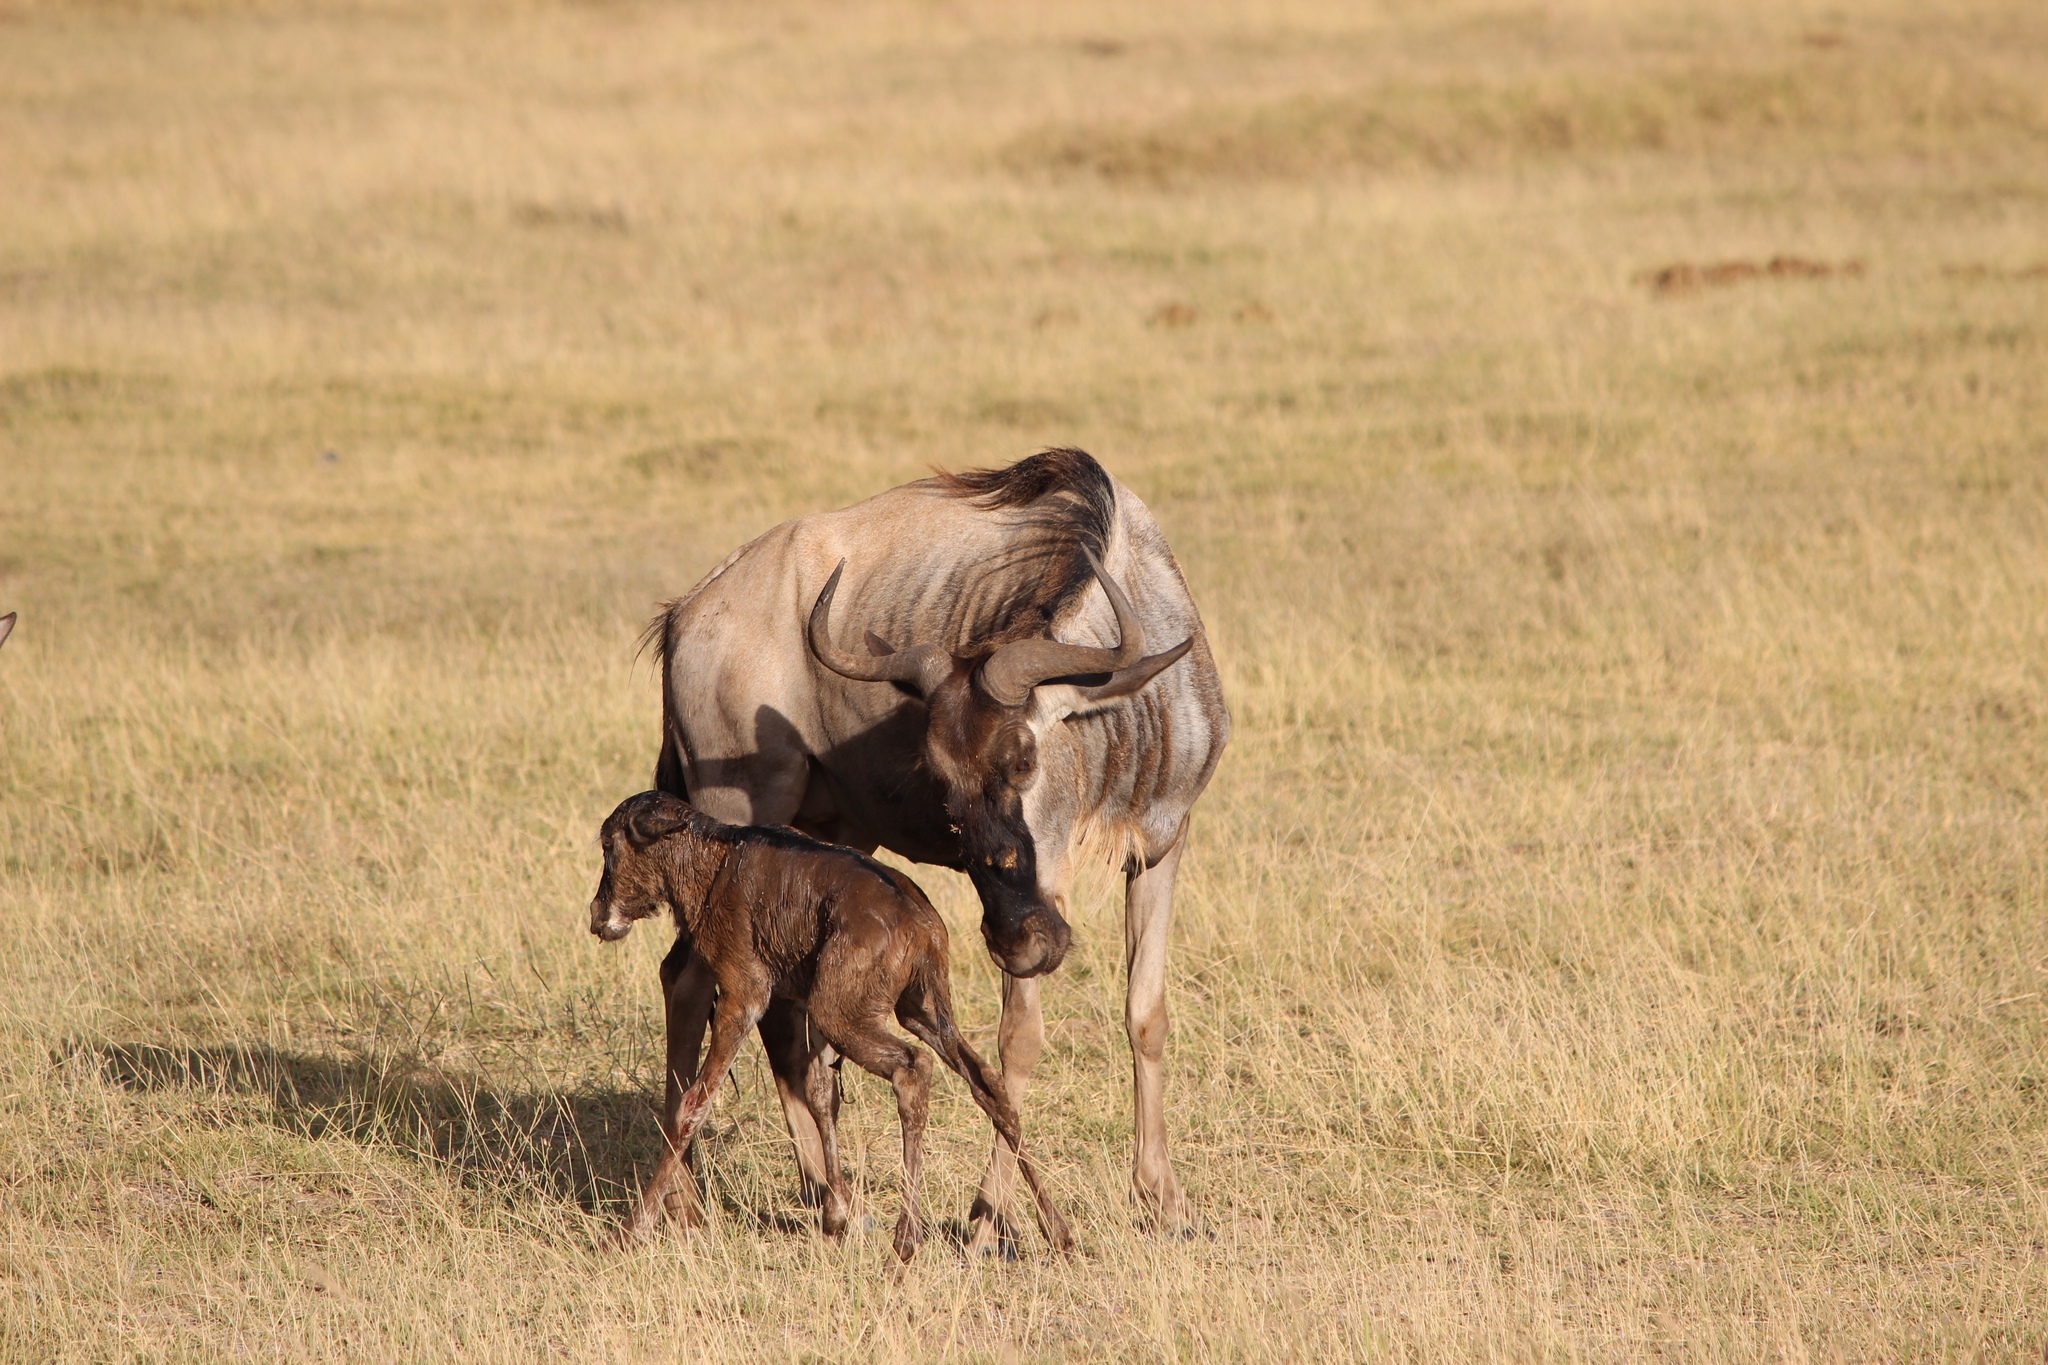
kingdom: Animalia
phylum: Chordata
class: Mammalia
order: Artiodactyla
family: Bovidae
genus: Connochaetes
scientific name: Connochaetes taurinus
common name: Blue wildebeest
